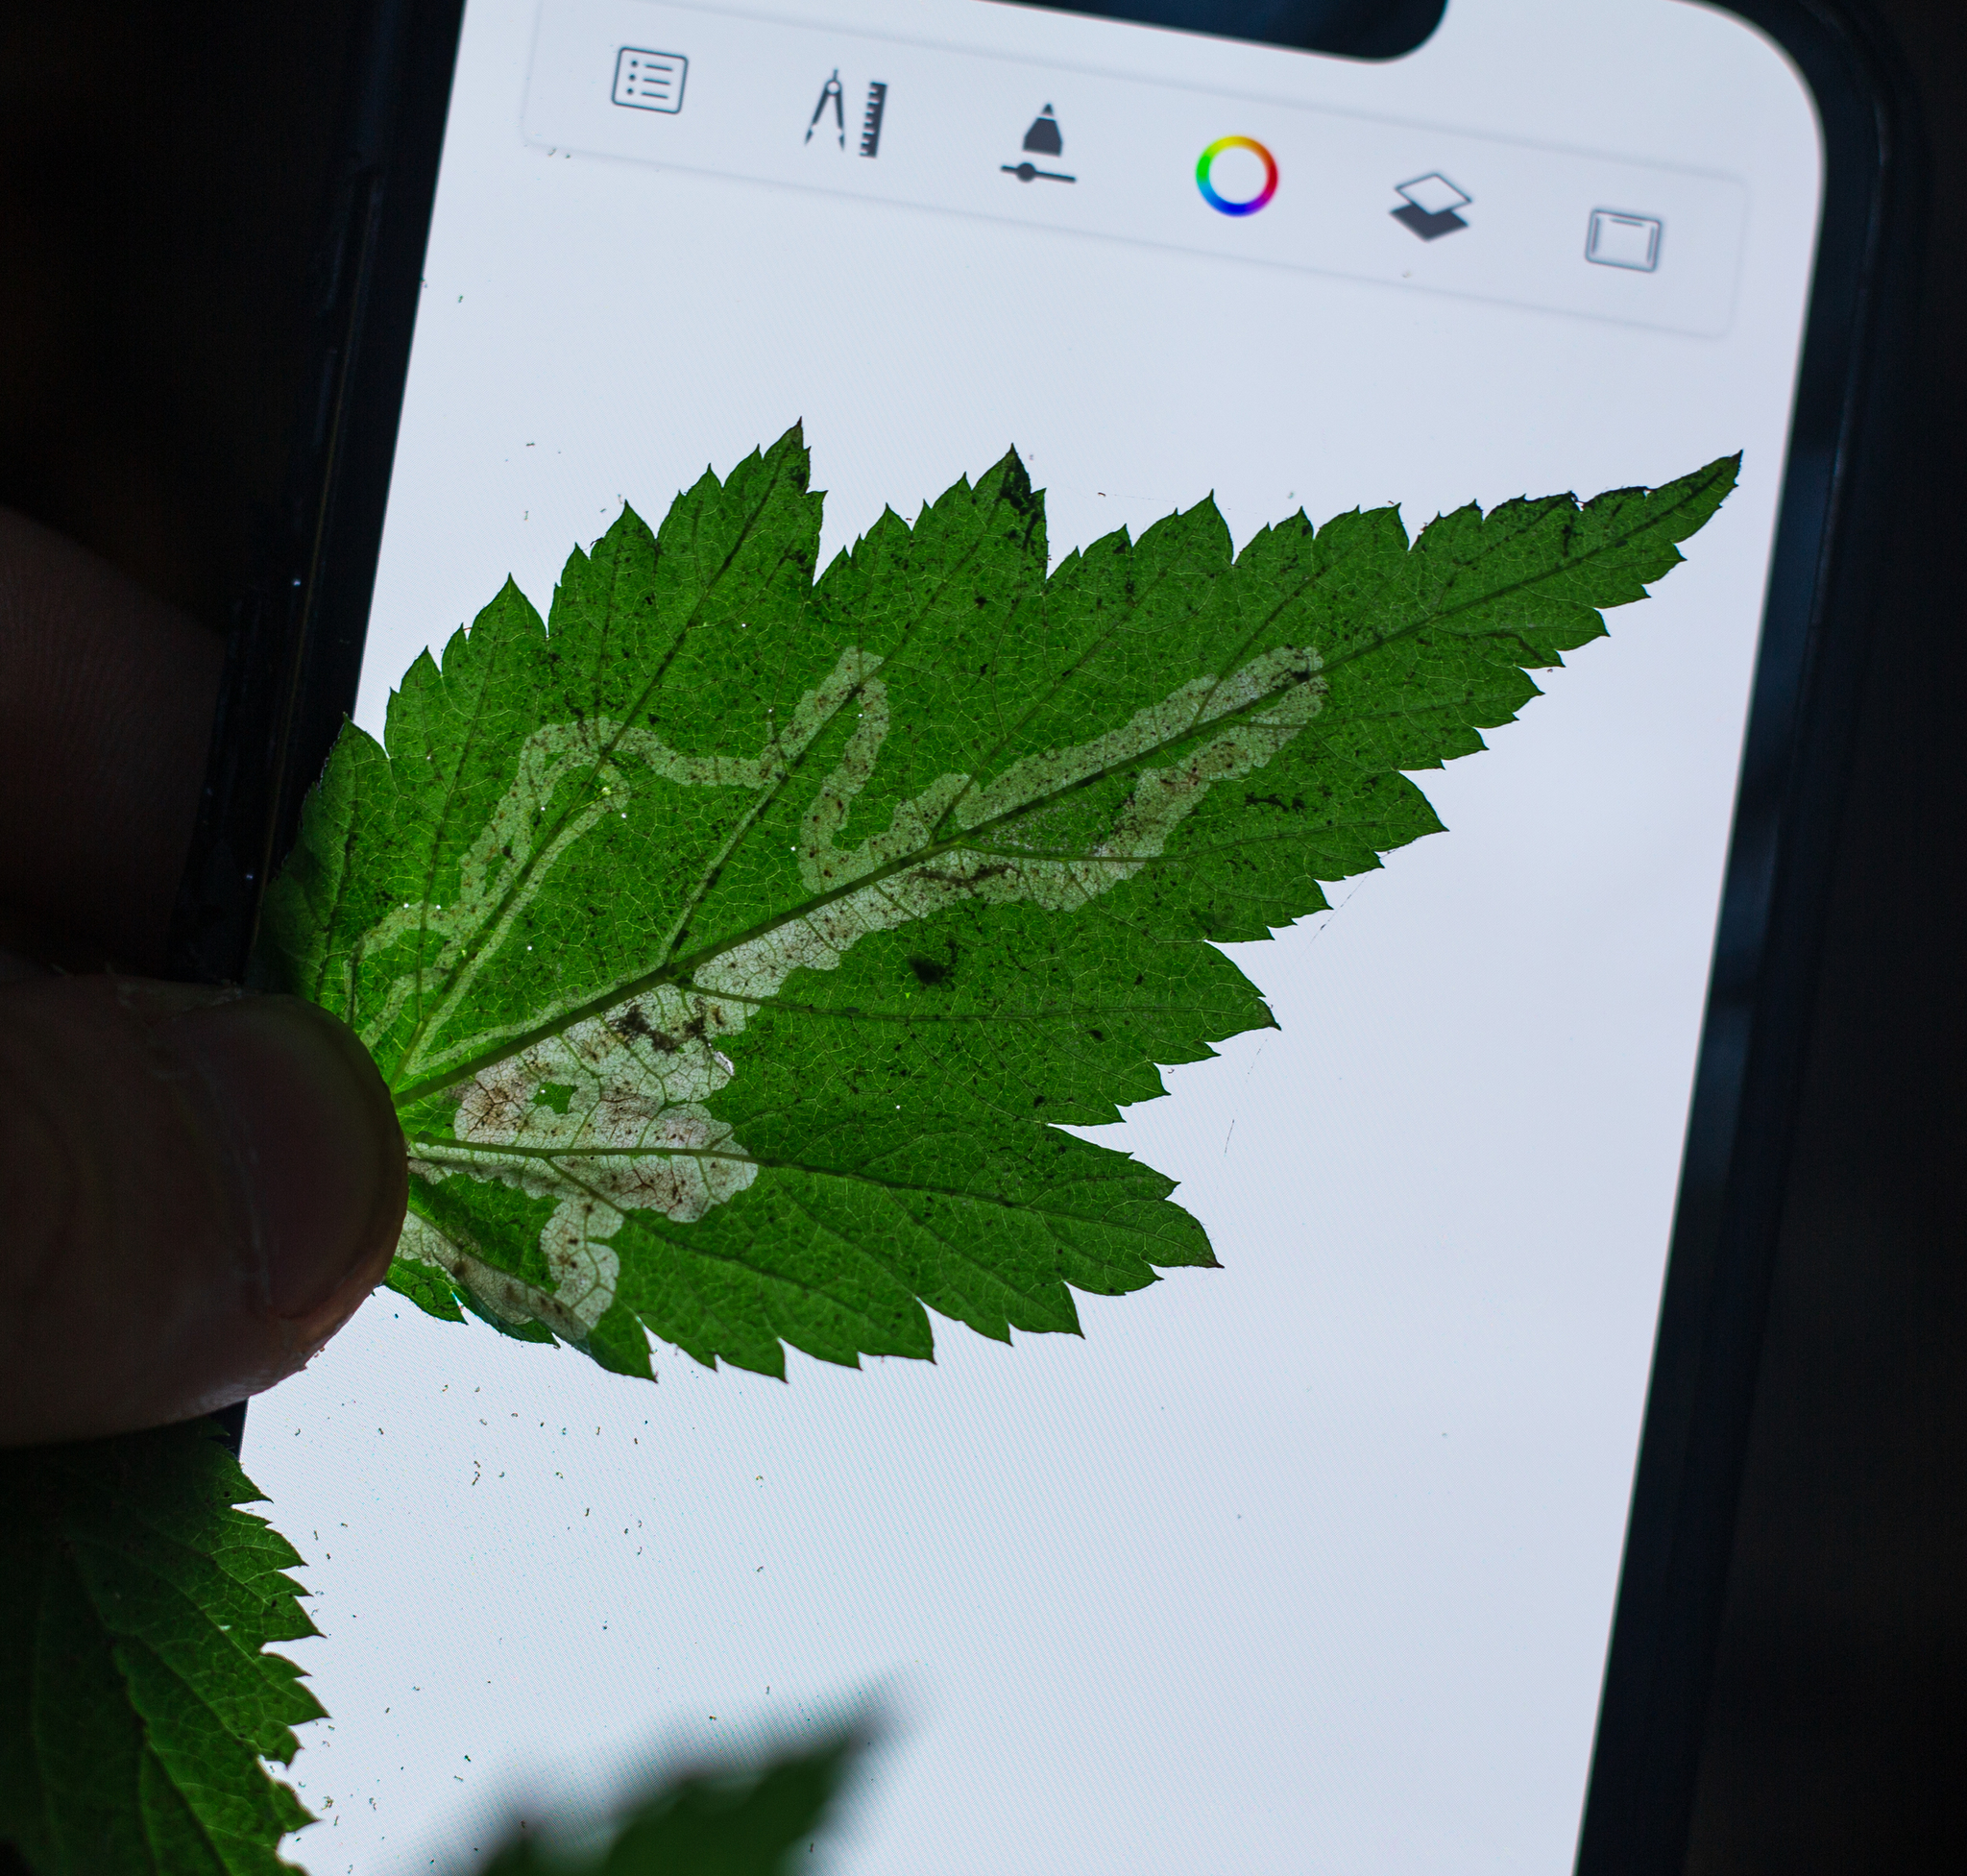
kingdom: Animalia
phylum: Arthropoda
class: Insecta
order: Diptera
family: Agromyzidae
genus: Agromyza
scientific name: Agromyza vockerothi
